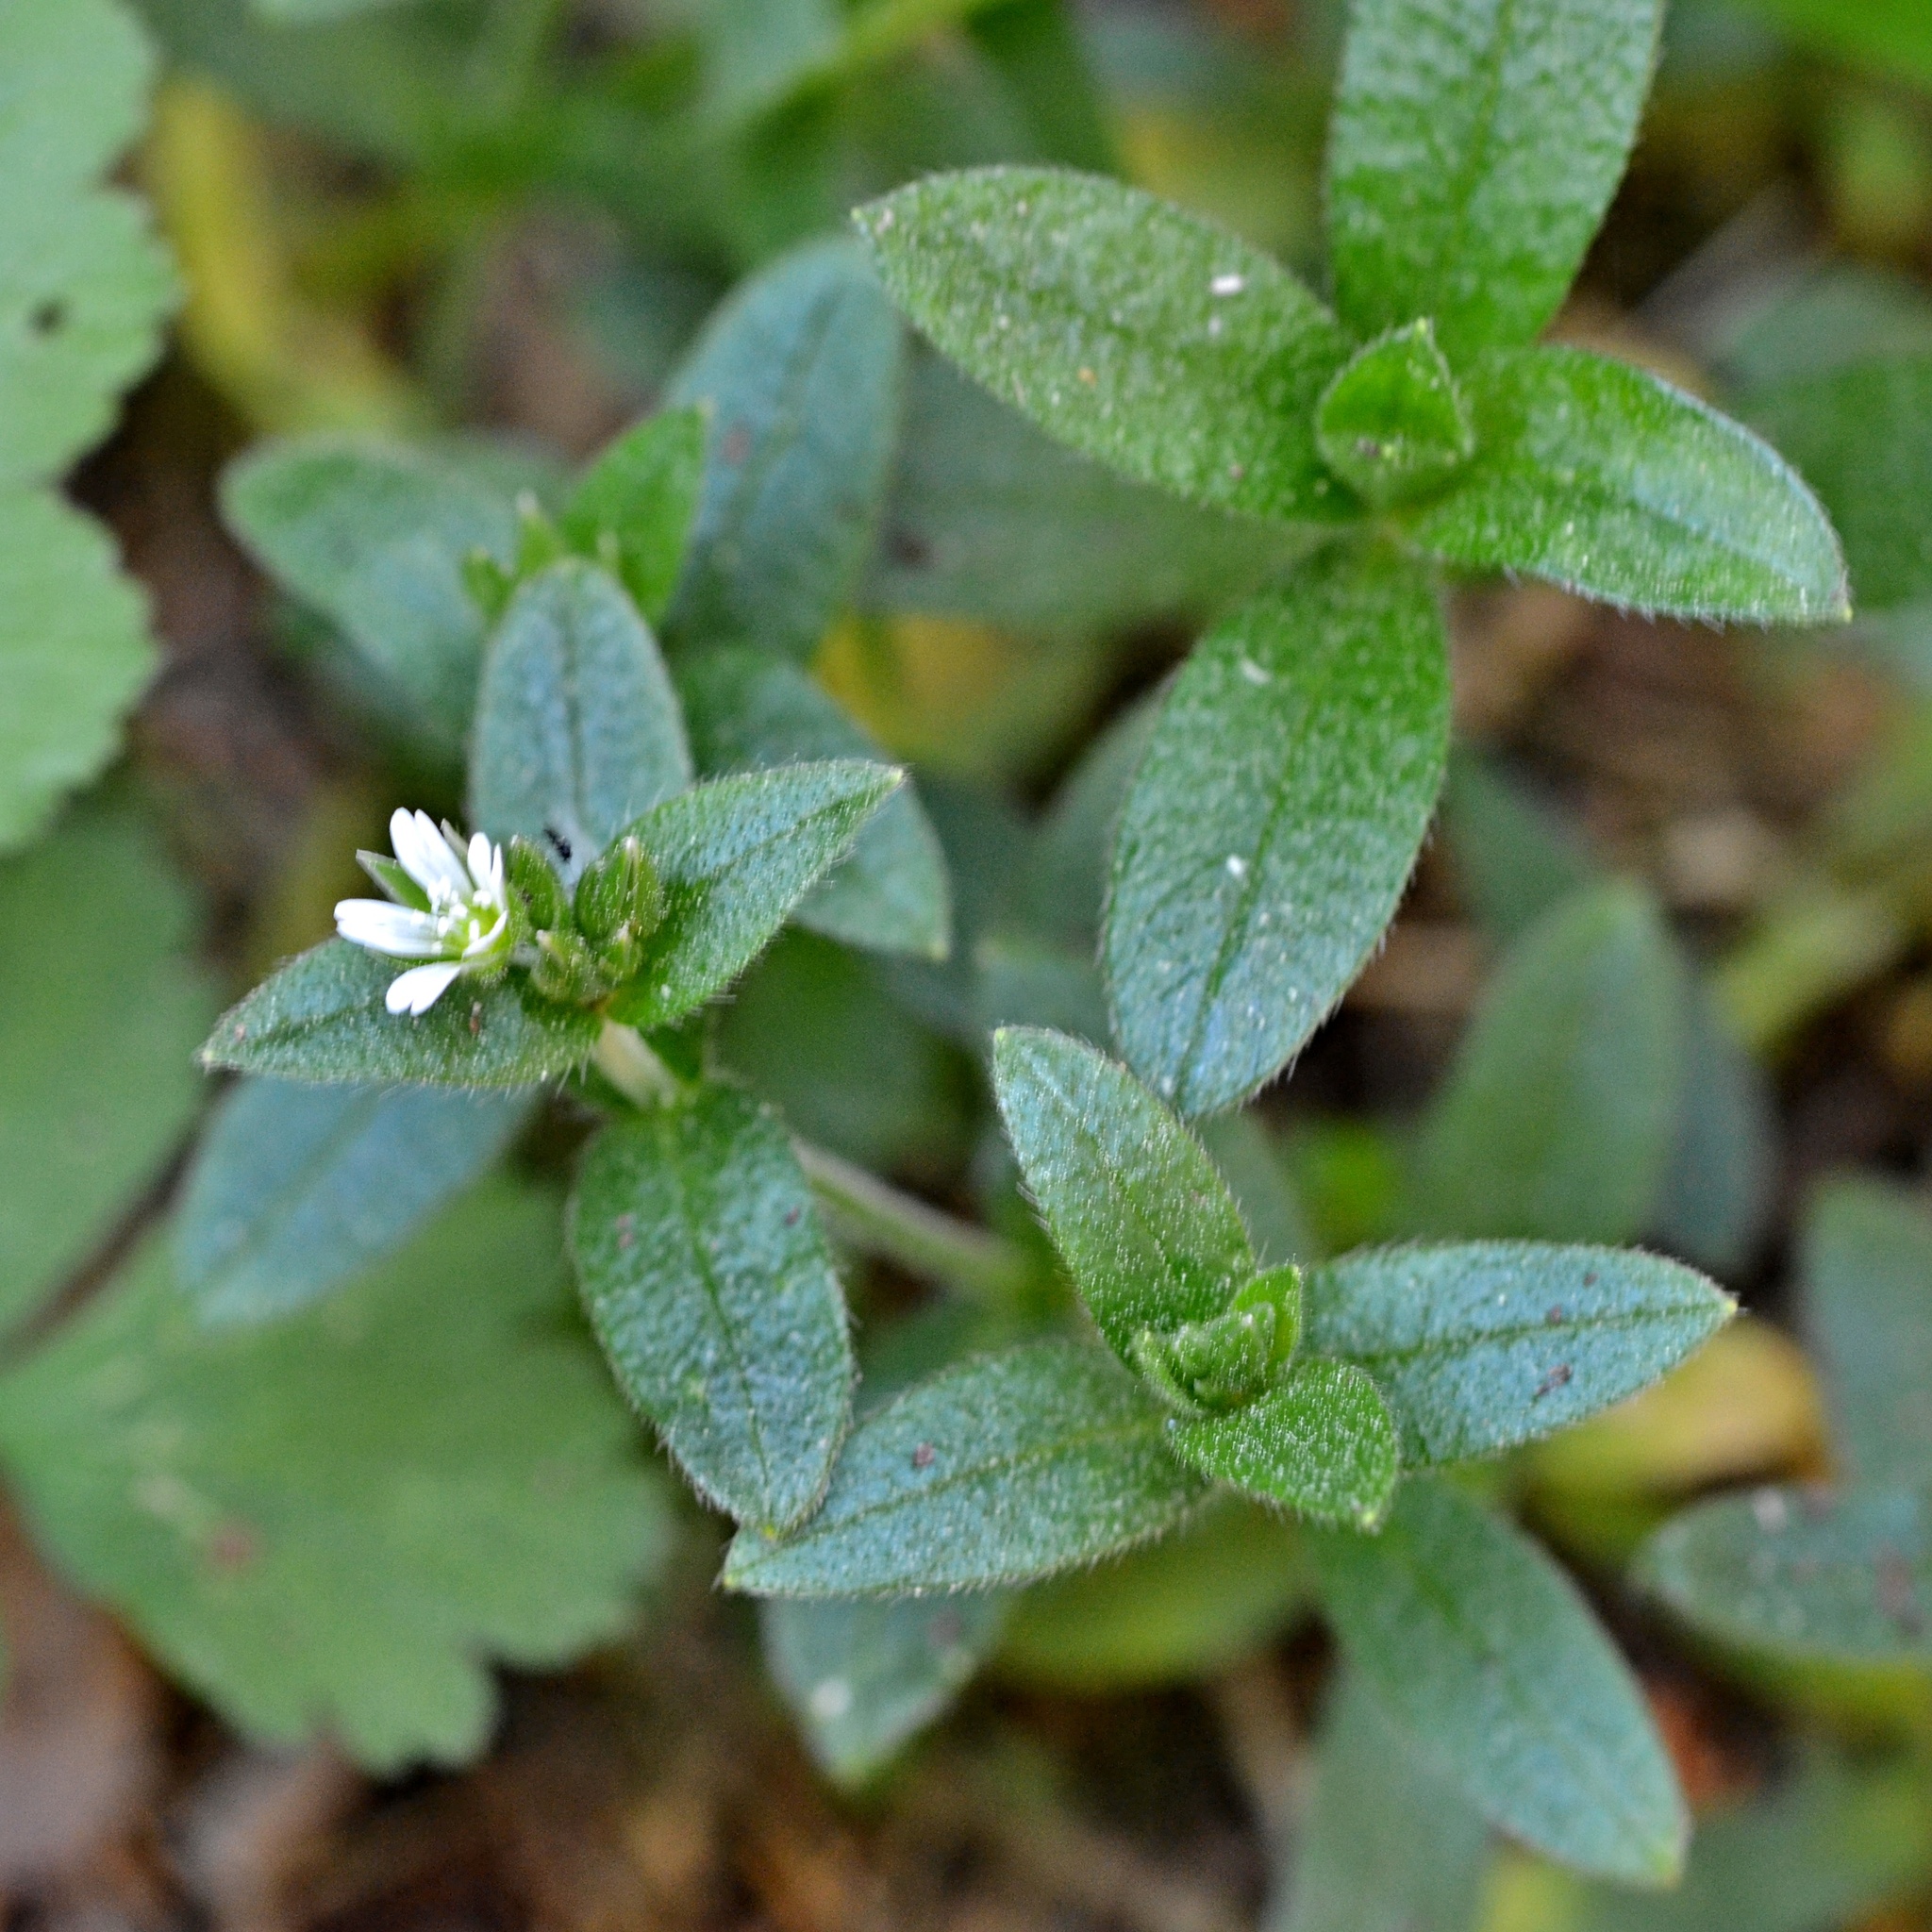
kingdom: Plantae
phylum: Tracheophyta
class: Magnoliopsida
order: Caryophyllales
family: Caryophyllaceae
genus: Cerastium
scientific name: Cerastium holosteoides
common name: Big chickweed
